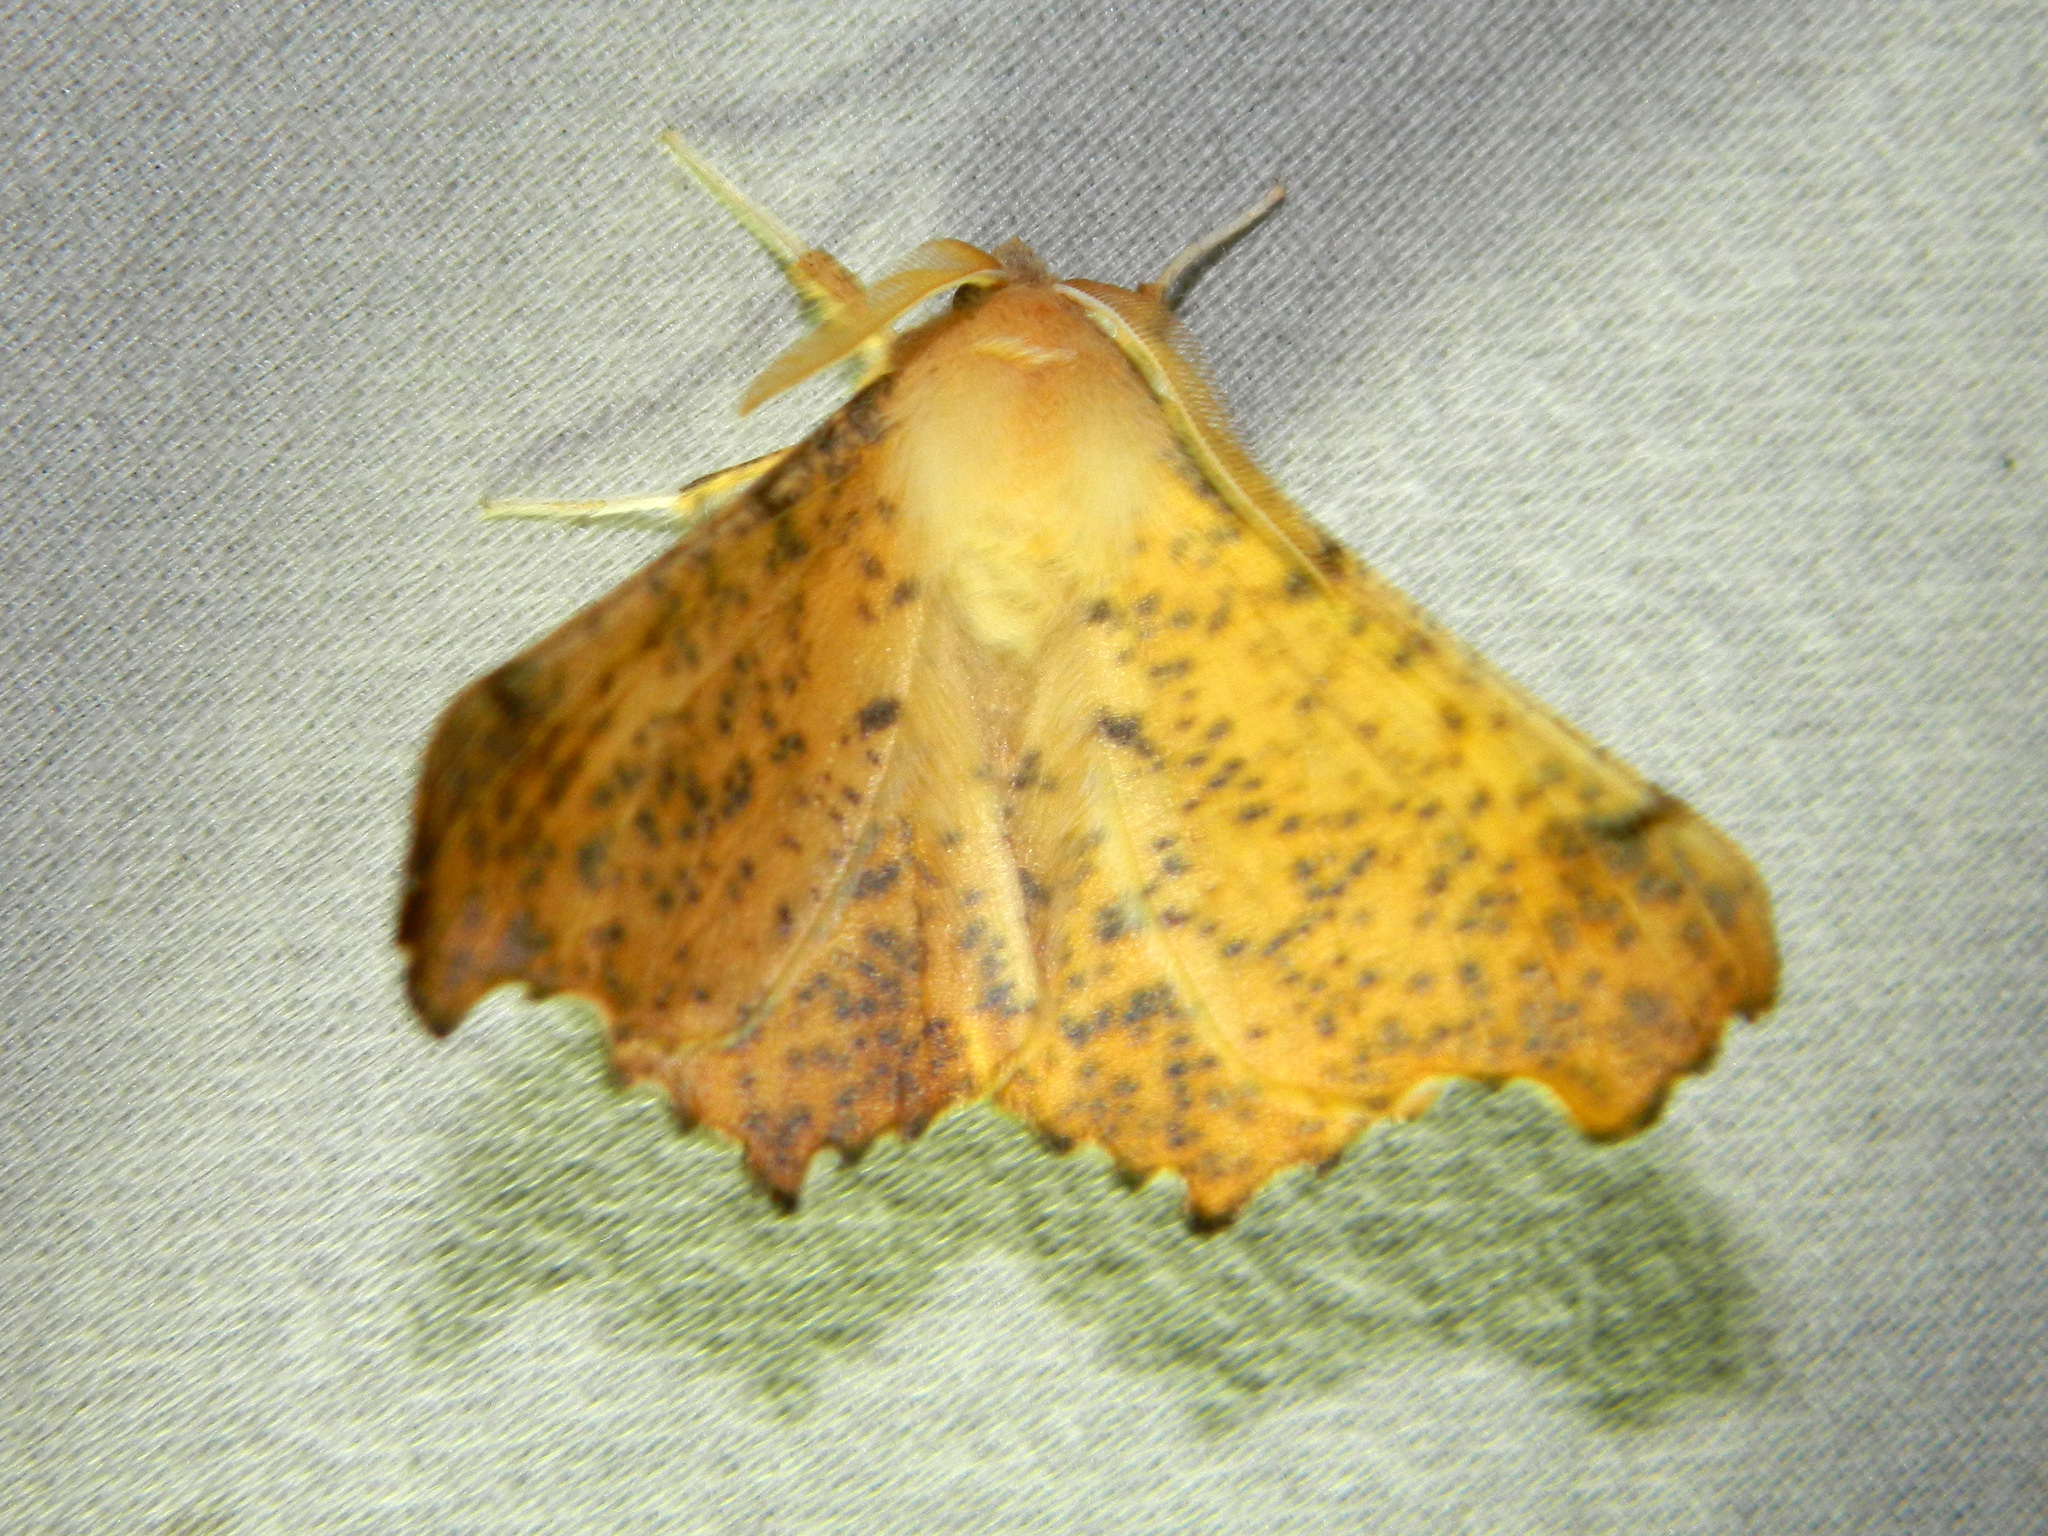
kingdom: Animalia
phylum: Arthropoda
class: Insecta
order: Lepidoptera
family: Geometridae
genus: Ennomos
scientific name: Ennomos magnaria
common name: Maple spanworm
